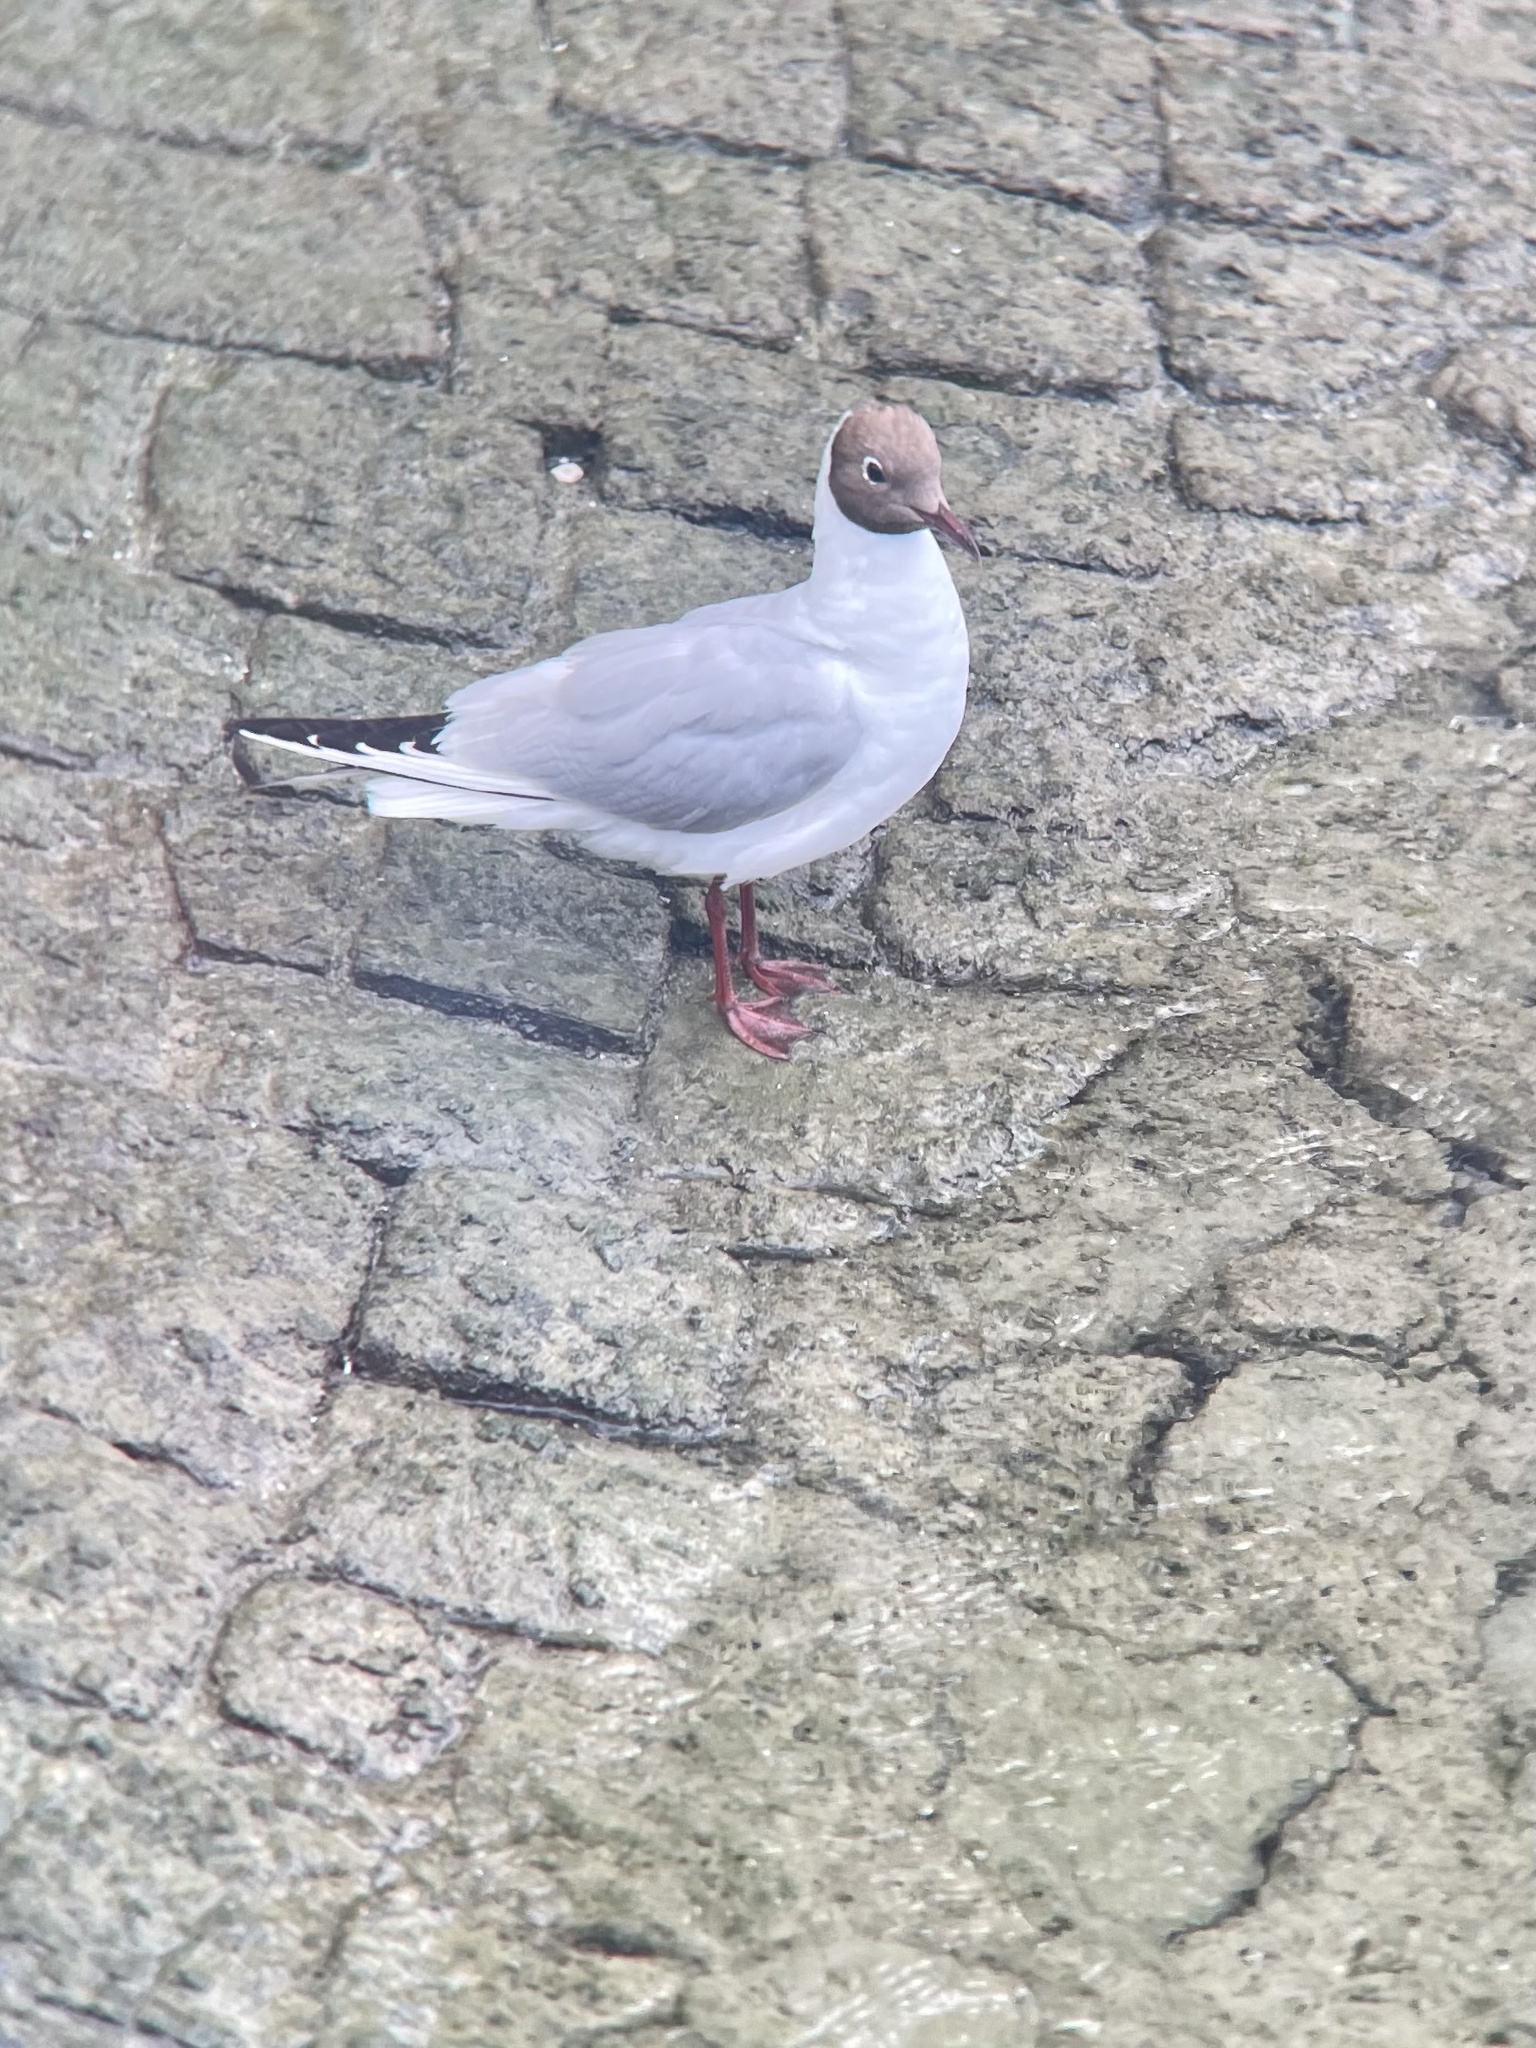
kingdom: Animalia
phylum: Chordata
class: Aves
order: Charadriiformes
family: Laridae
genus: Chroicocephalus
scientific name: Chroicocephalus ridibundus
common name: Black-headed gull
